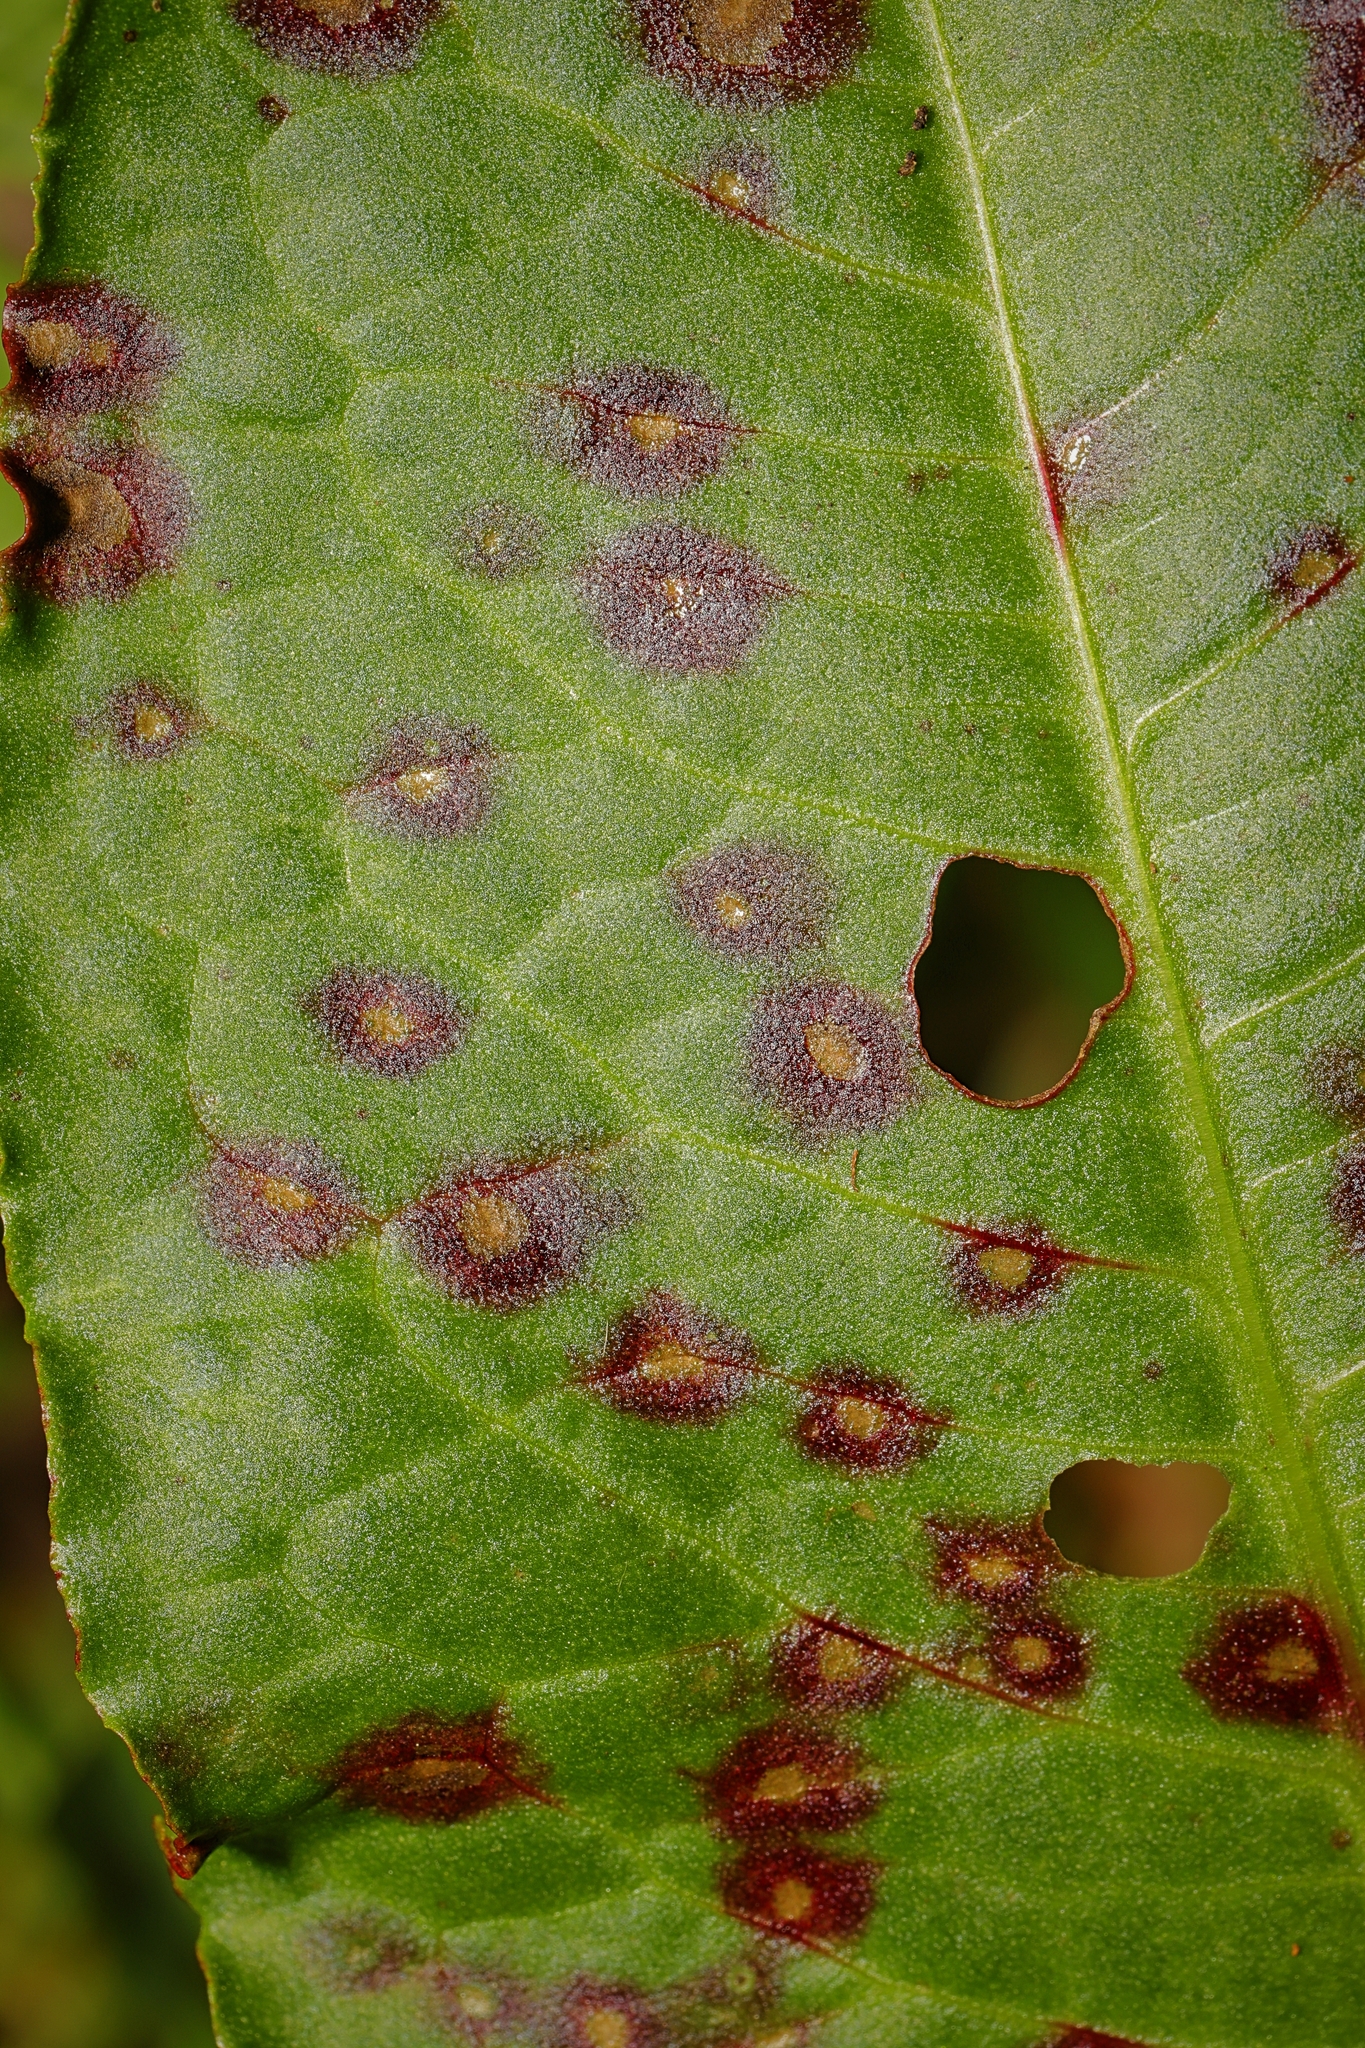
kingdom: Fungi
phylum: Ascomycota
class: Dothideomycetes
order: Mycosphaerellales
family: Mycosphaerellaceae
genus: Ramularia
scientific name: Ramularia rubella
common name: Red dock spot
